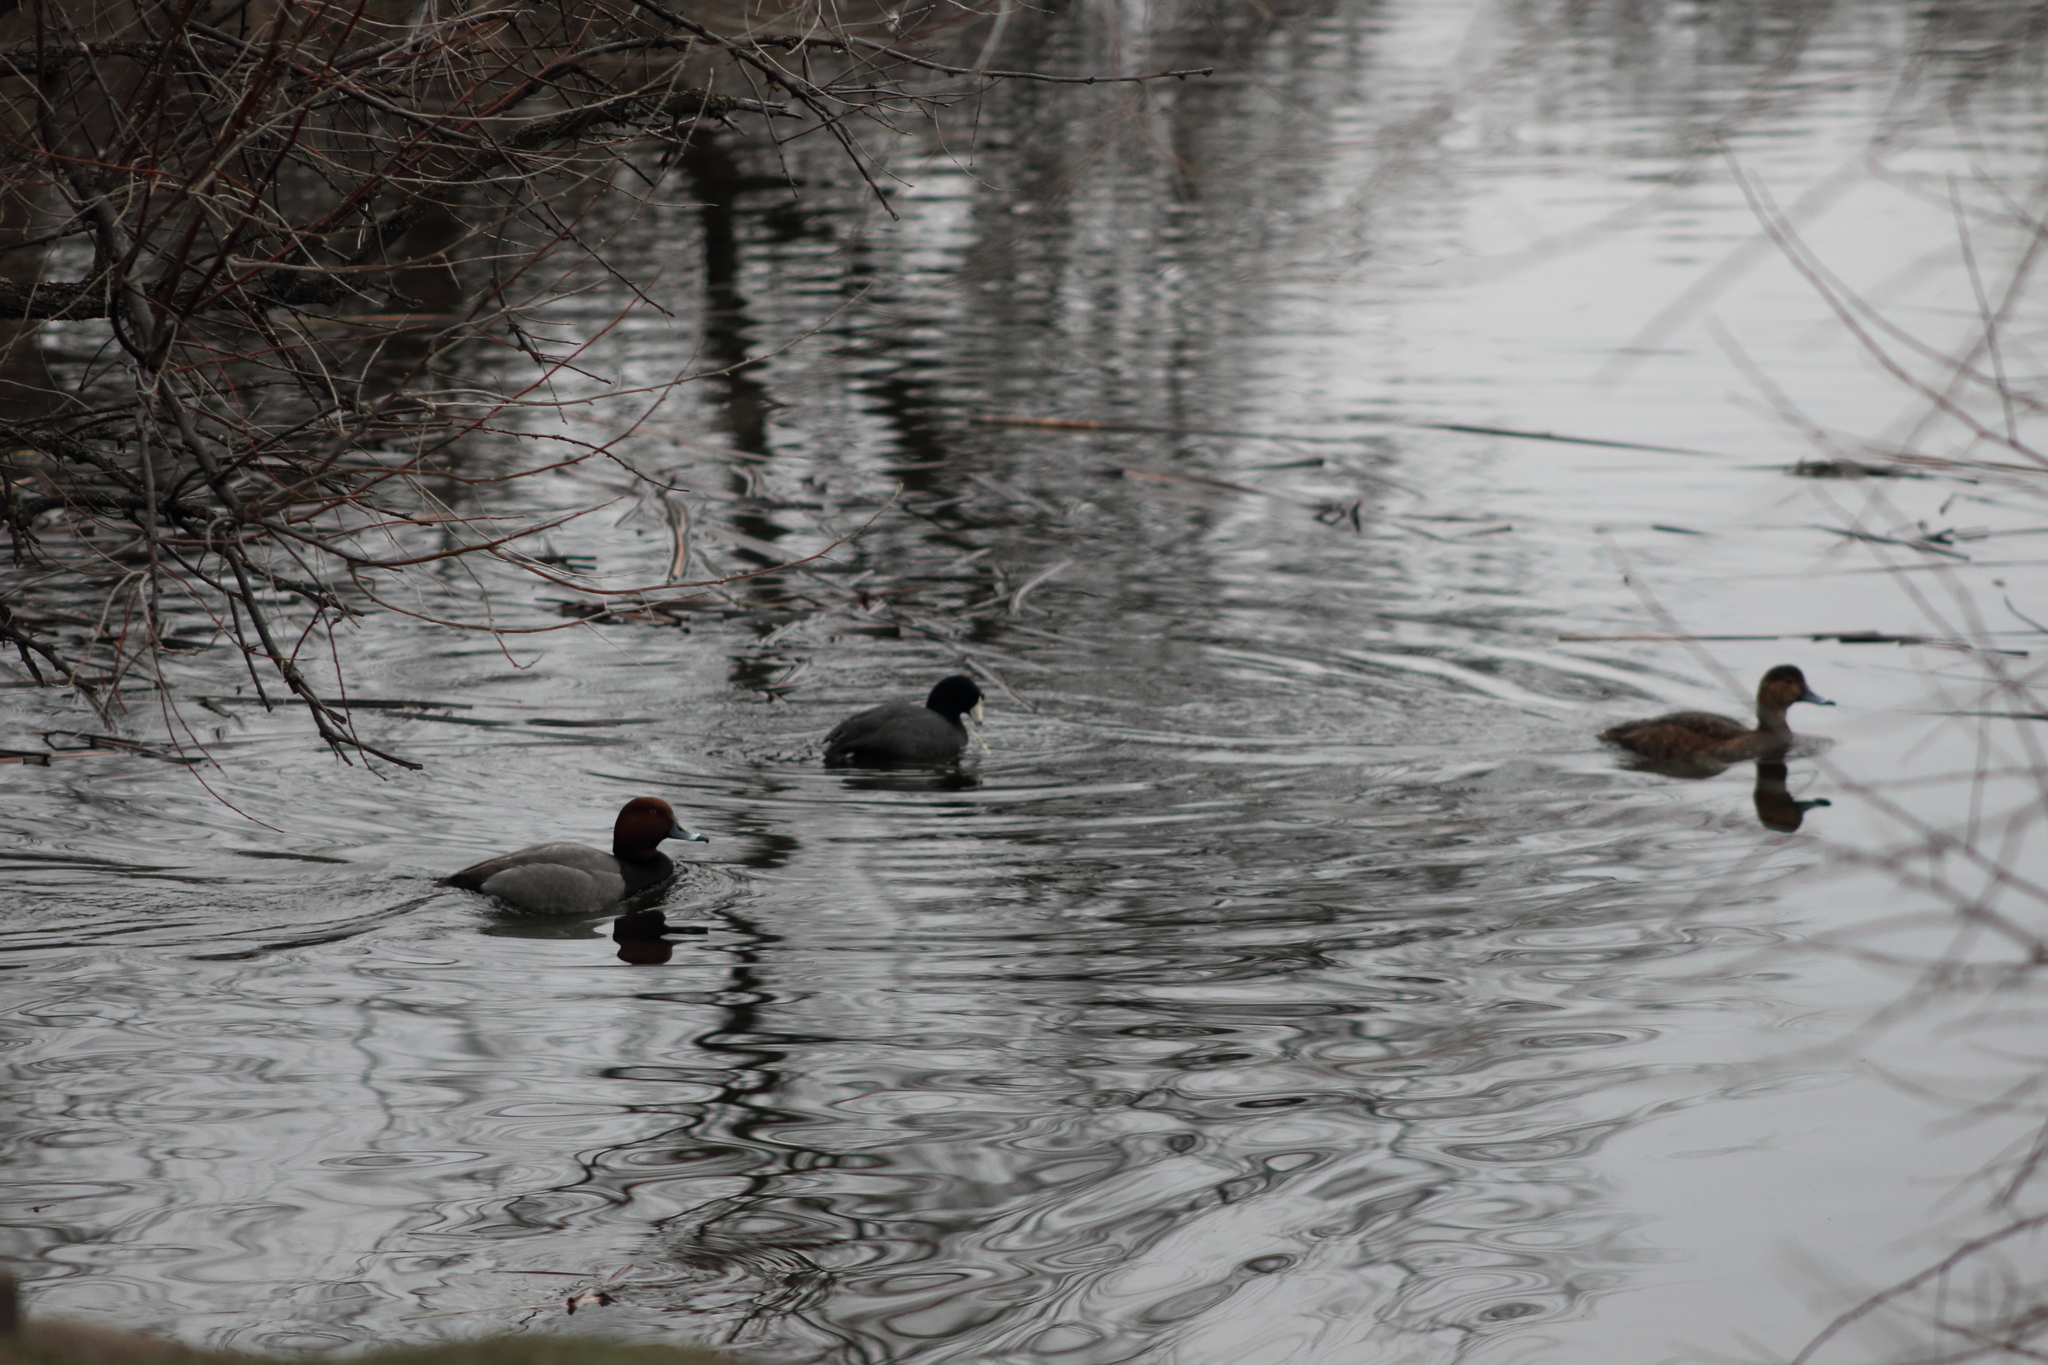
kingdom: Animalia
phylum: Chordata
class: Aves
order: Gruiformes
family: Rallidae
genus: Fulica
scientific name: Fulica americana
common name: American coot
